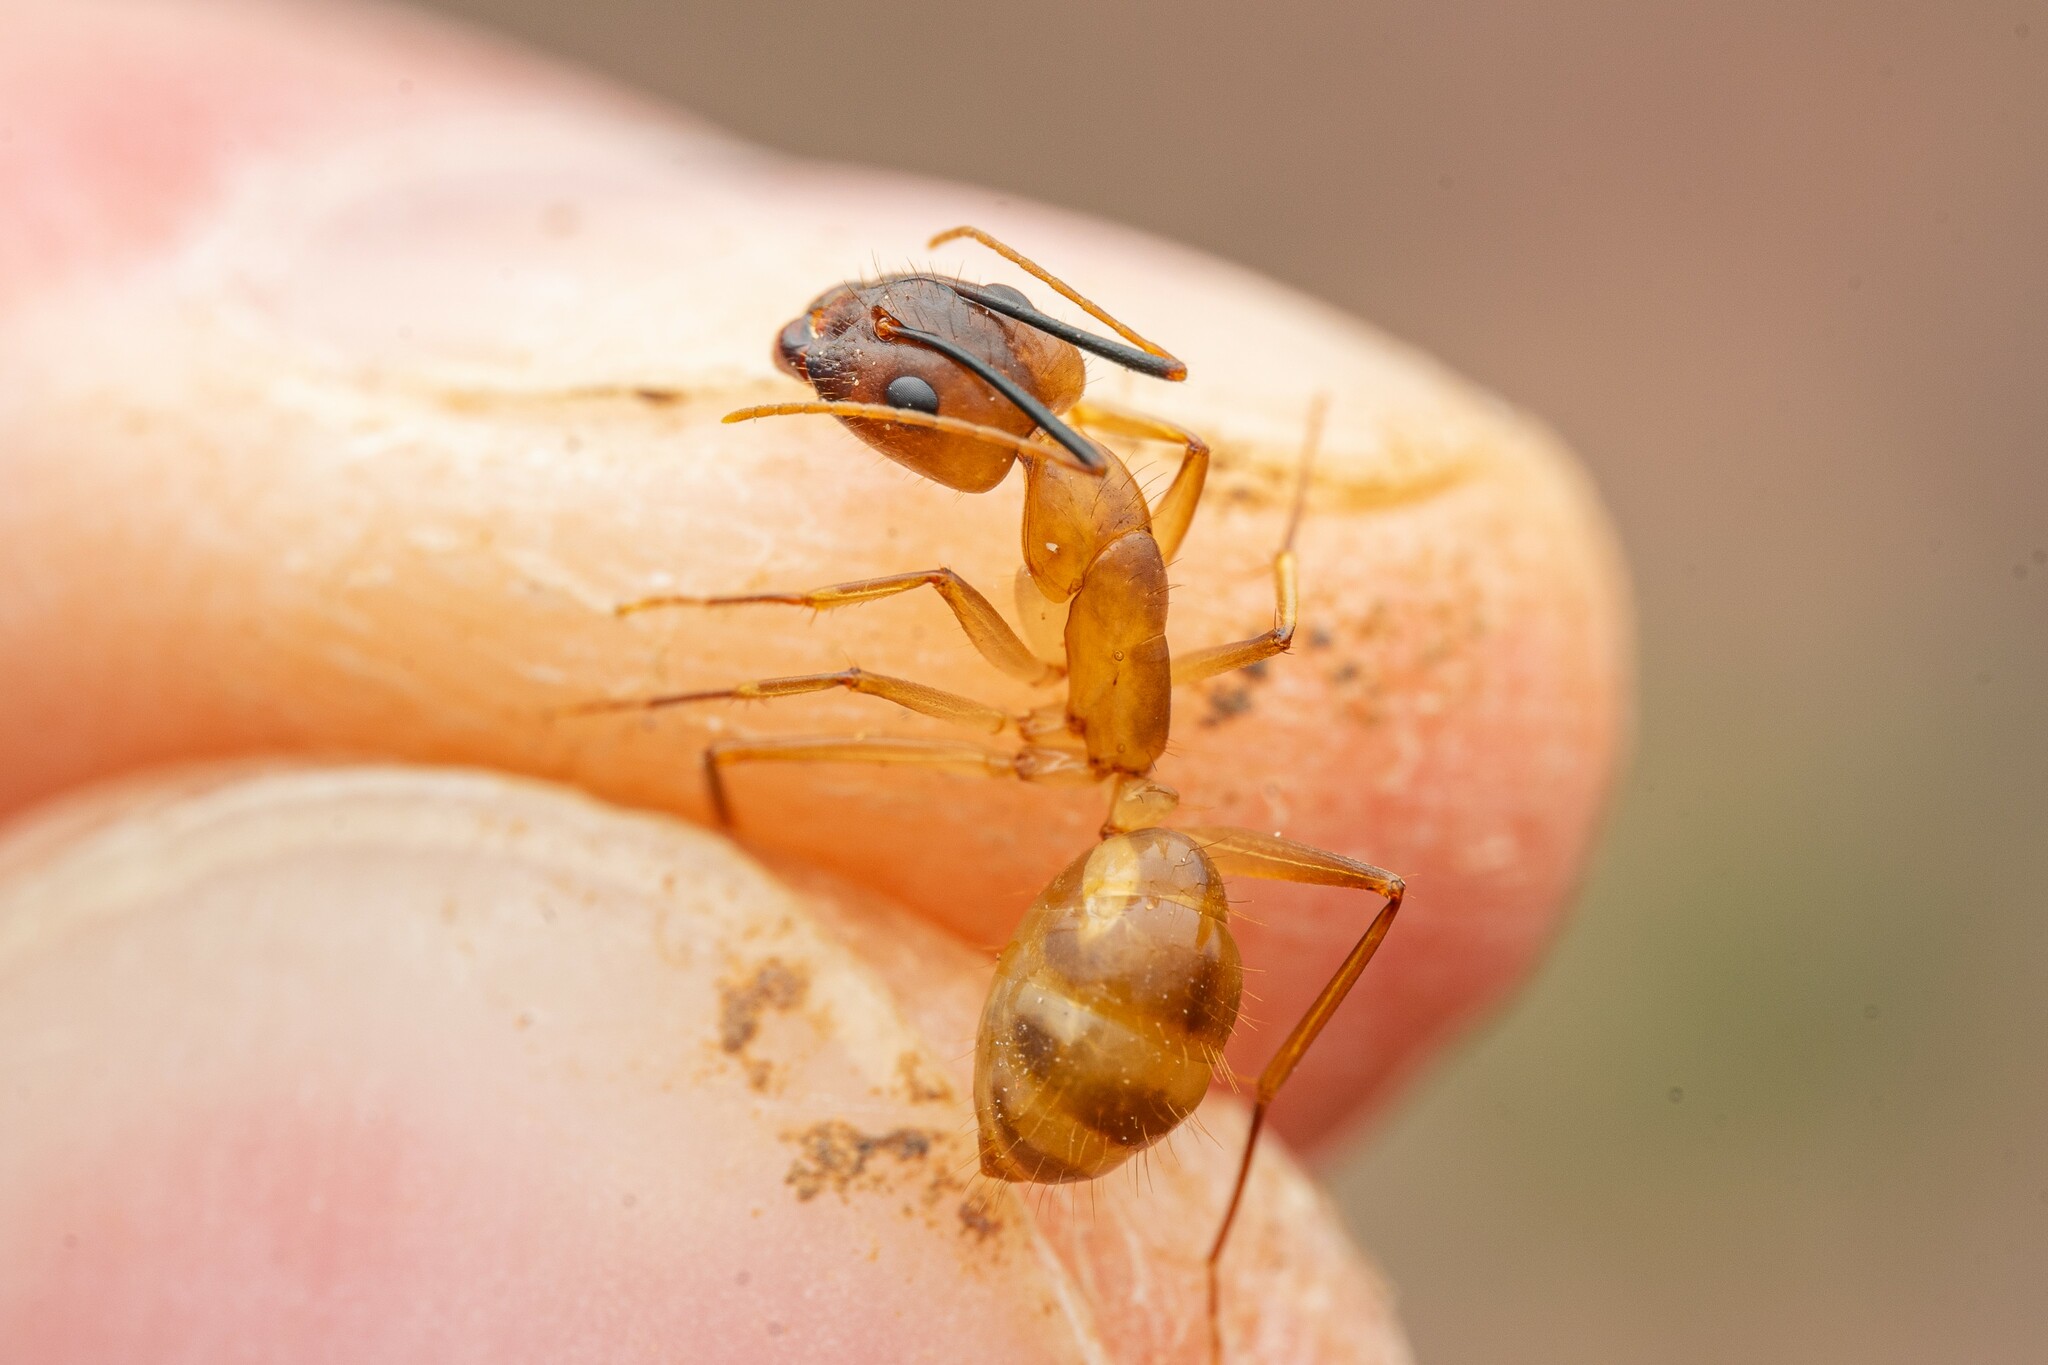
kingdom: Animalia
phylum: Arthropoda
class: Insecta
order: Hymenoptera
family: Formicidae
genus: Camponotus
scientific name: Camponotus festinatus
